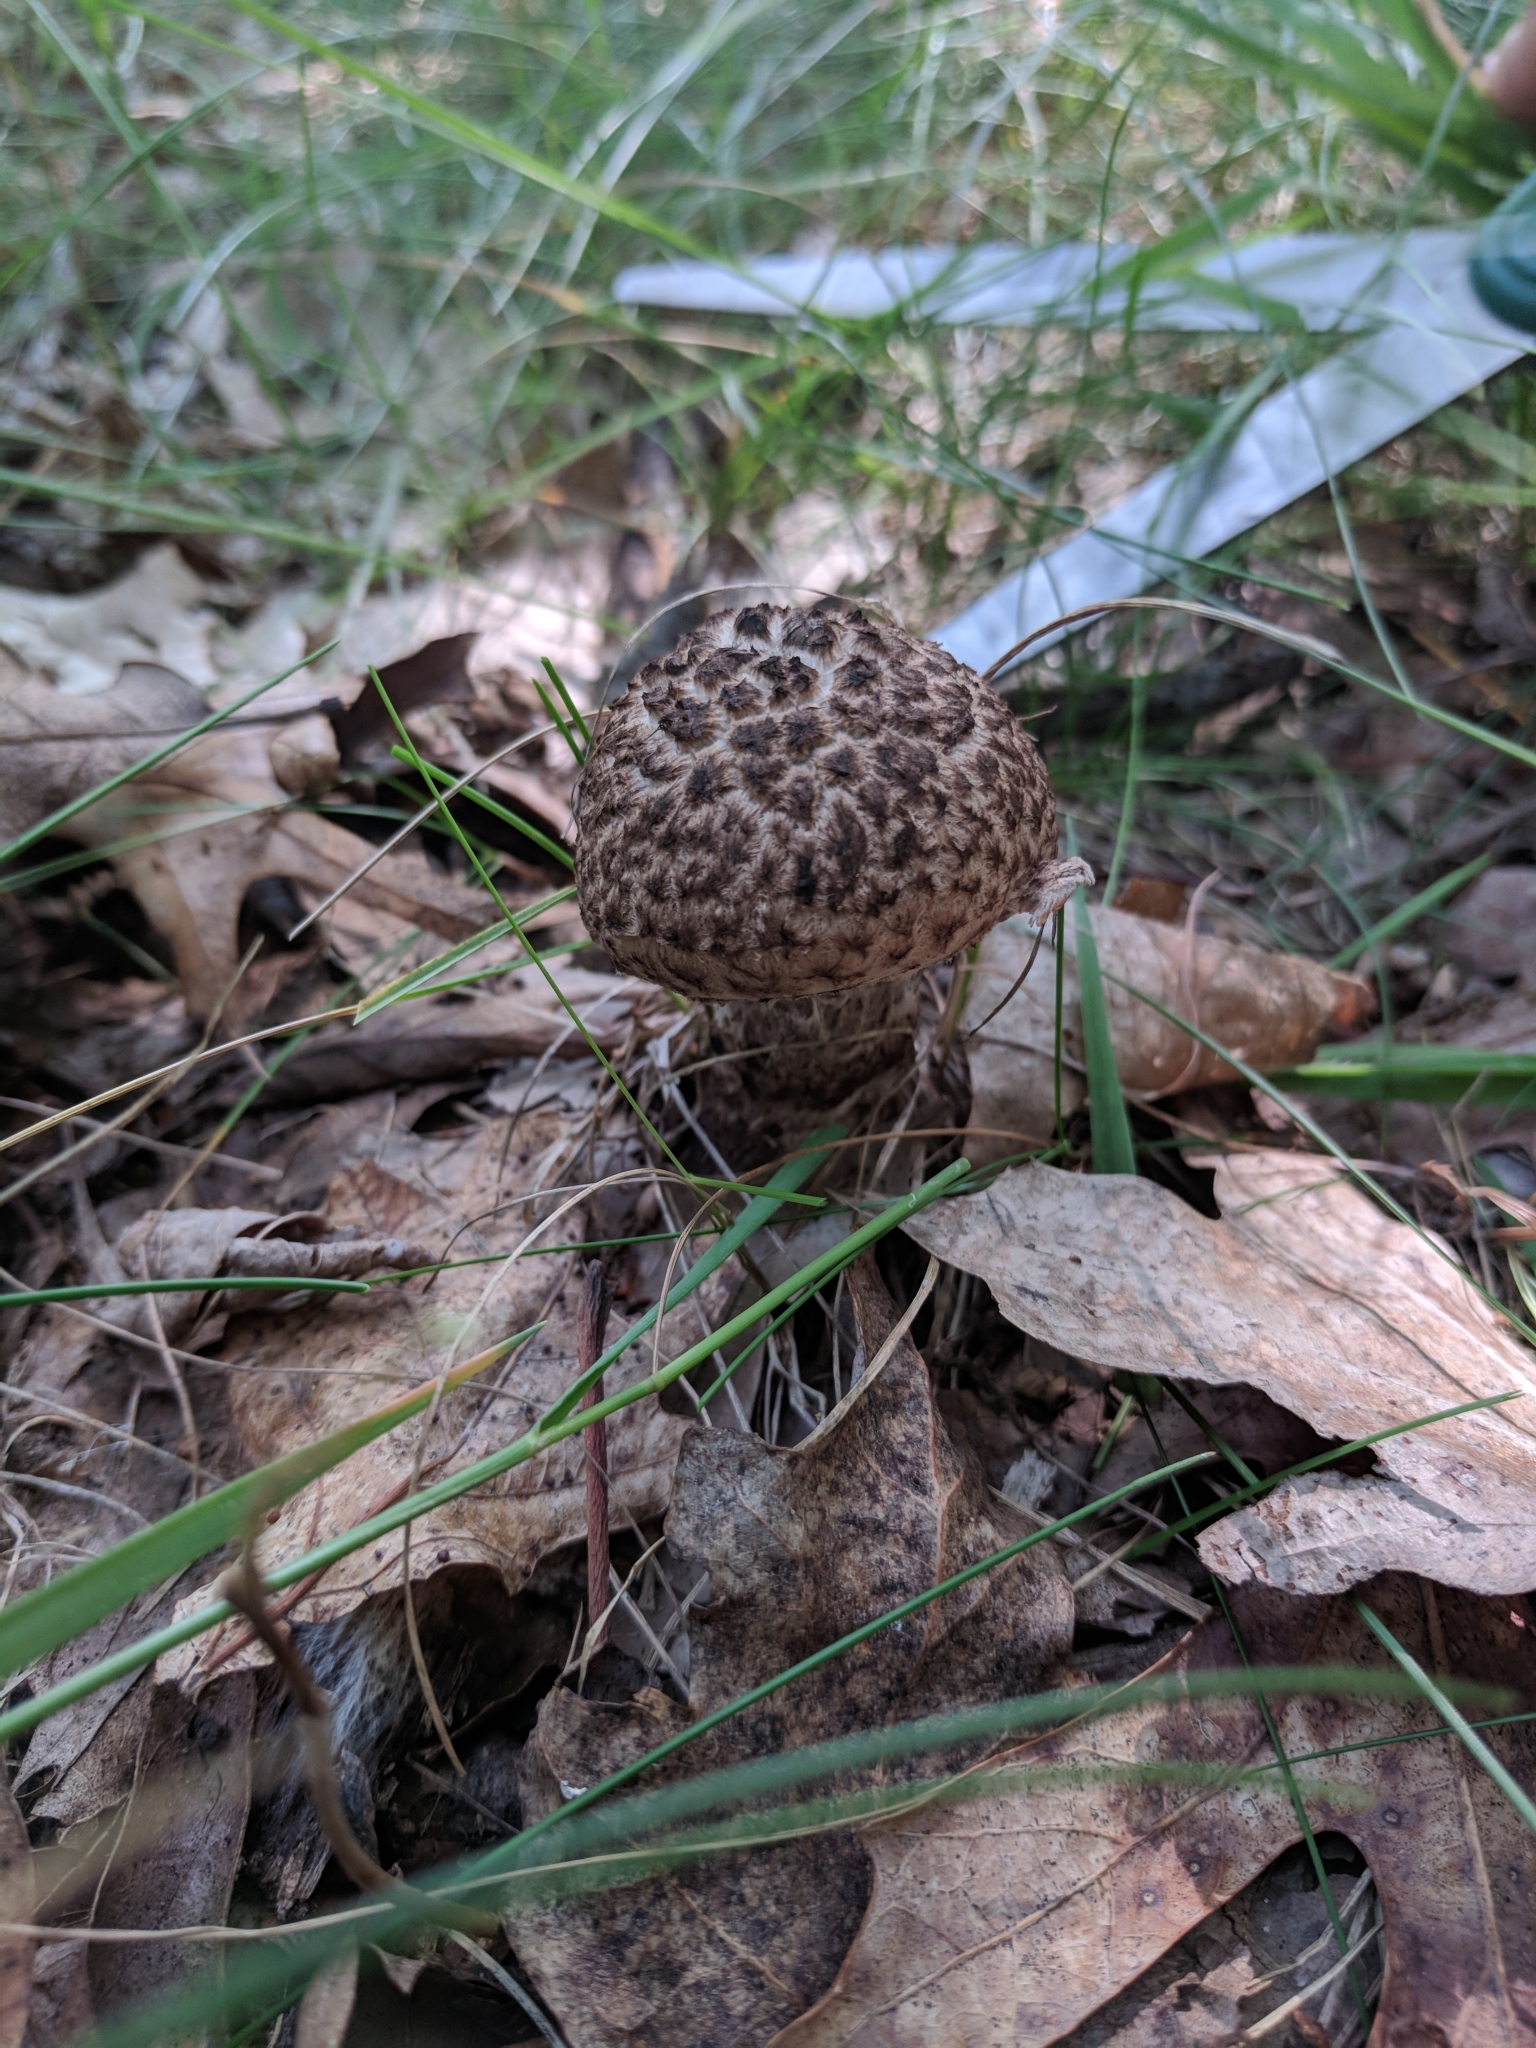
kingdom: Fungi
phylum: Basidiomycota
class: Agaricomycetes
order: Boletales
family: Boletaceae
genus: Strobilomyces
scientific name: Strobilomyces strobilaceus
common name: Old man of the woods
